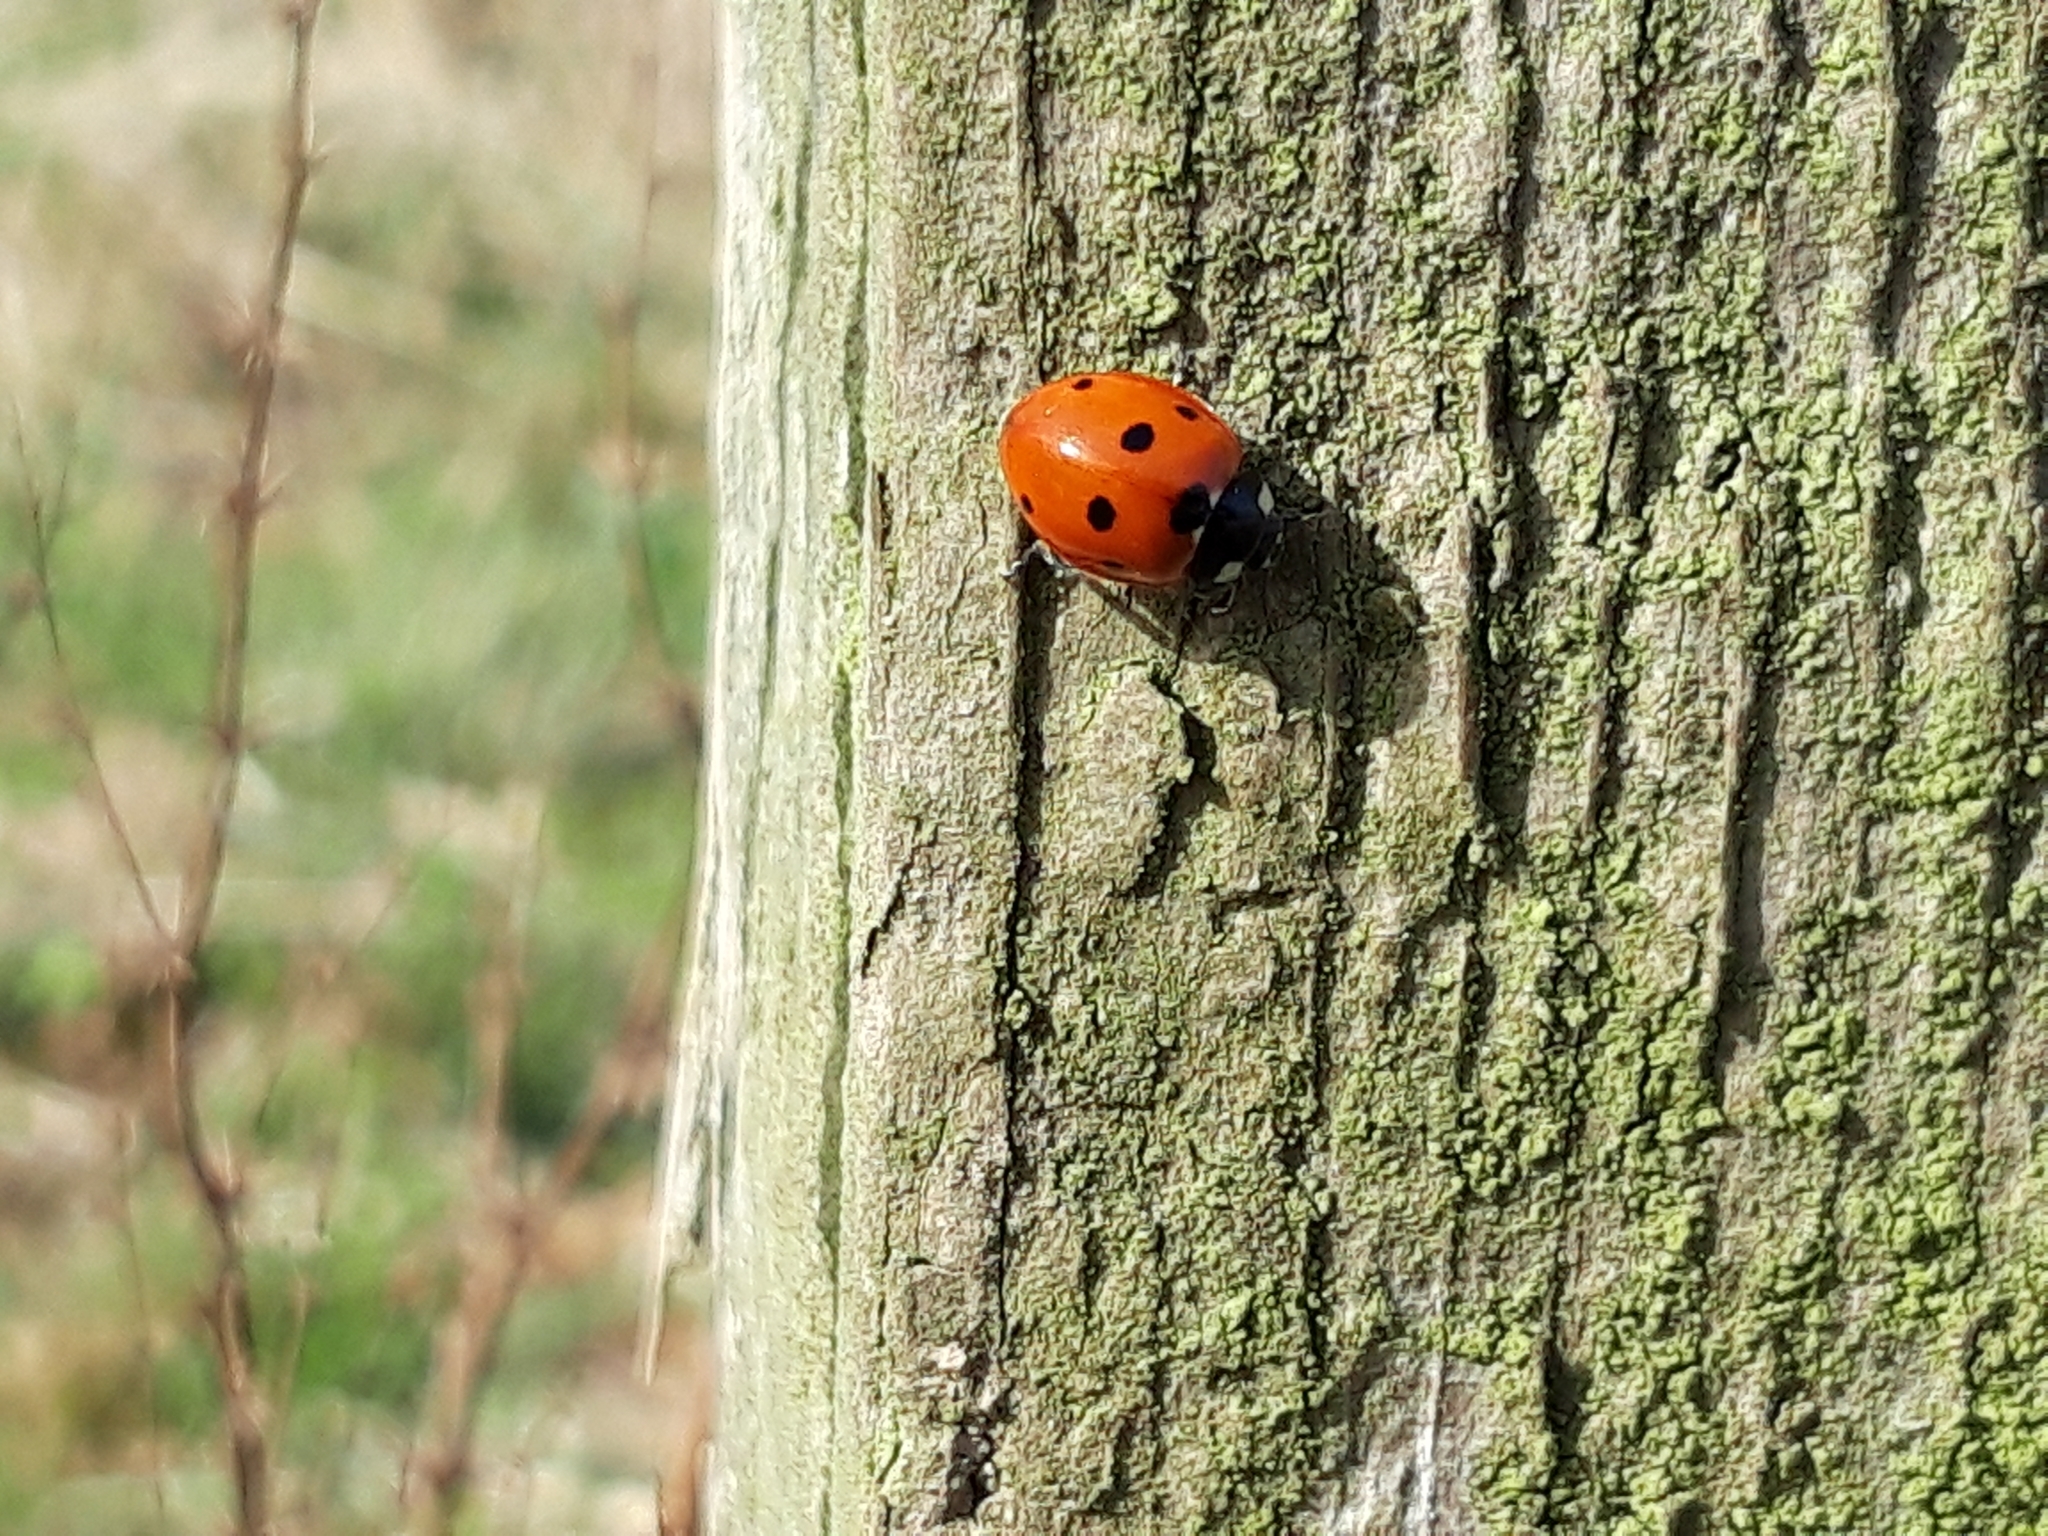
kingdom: Animalia
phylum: Arthropoda
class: Insecta
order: Coleoptera
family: Coccinellidae
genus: Coccinella
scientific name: Coccinella septempunctata
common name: Sevenspotted lady beetle
